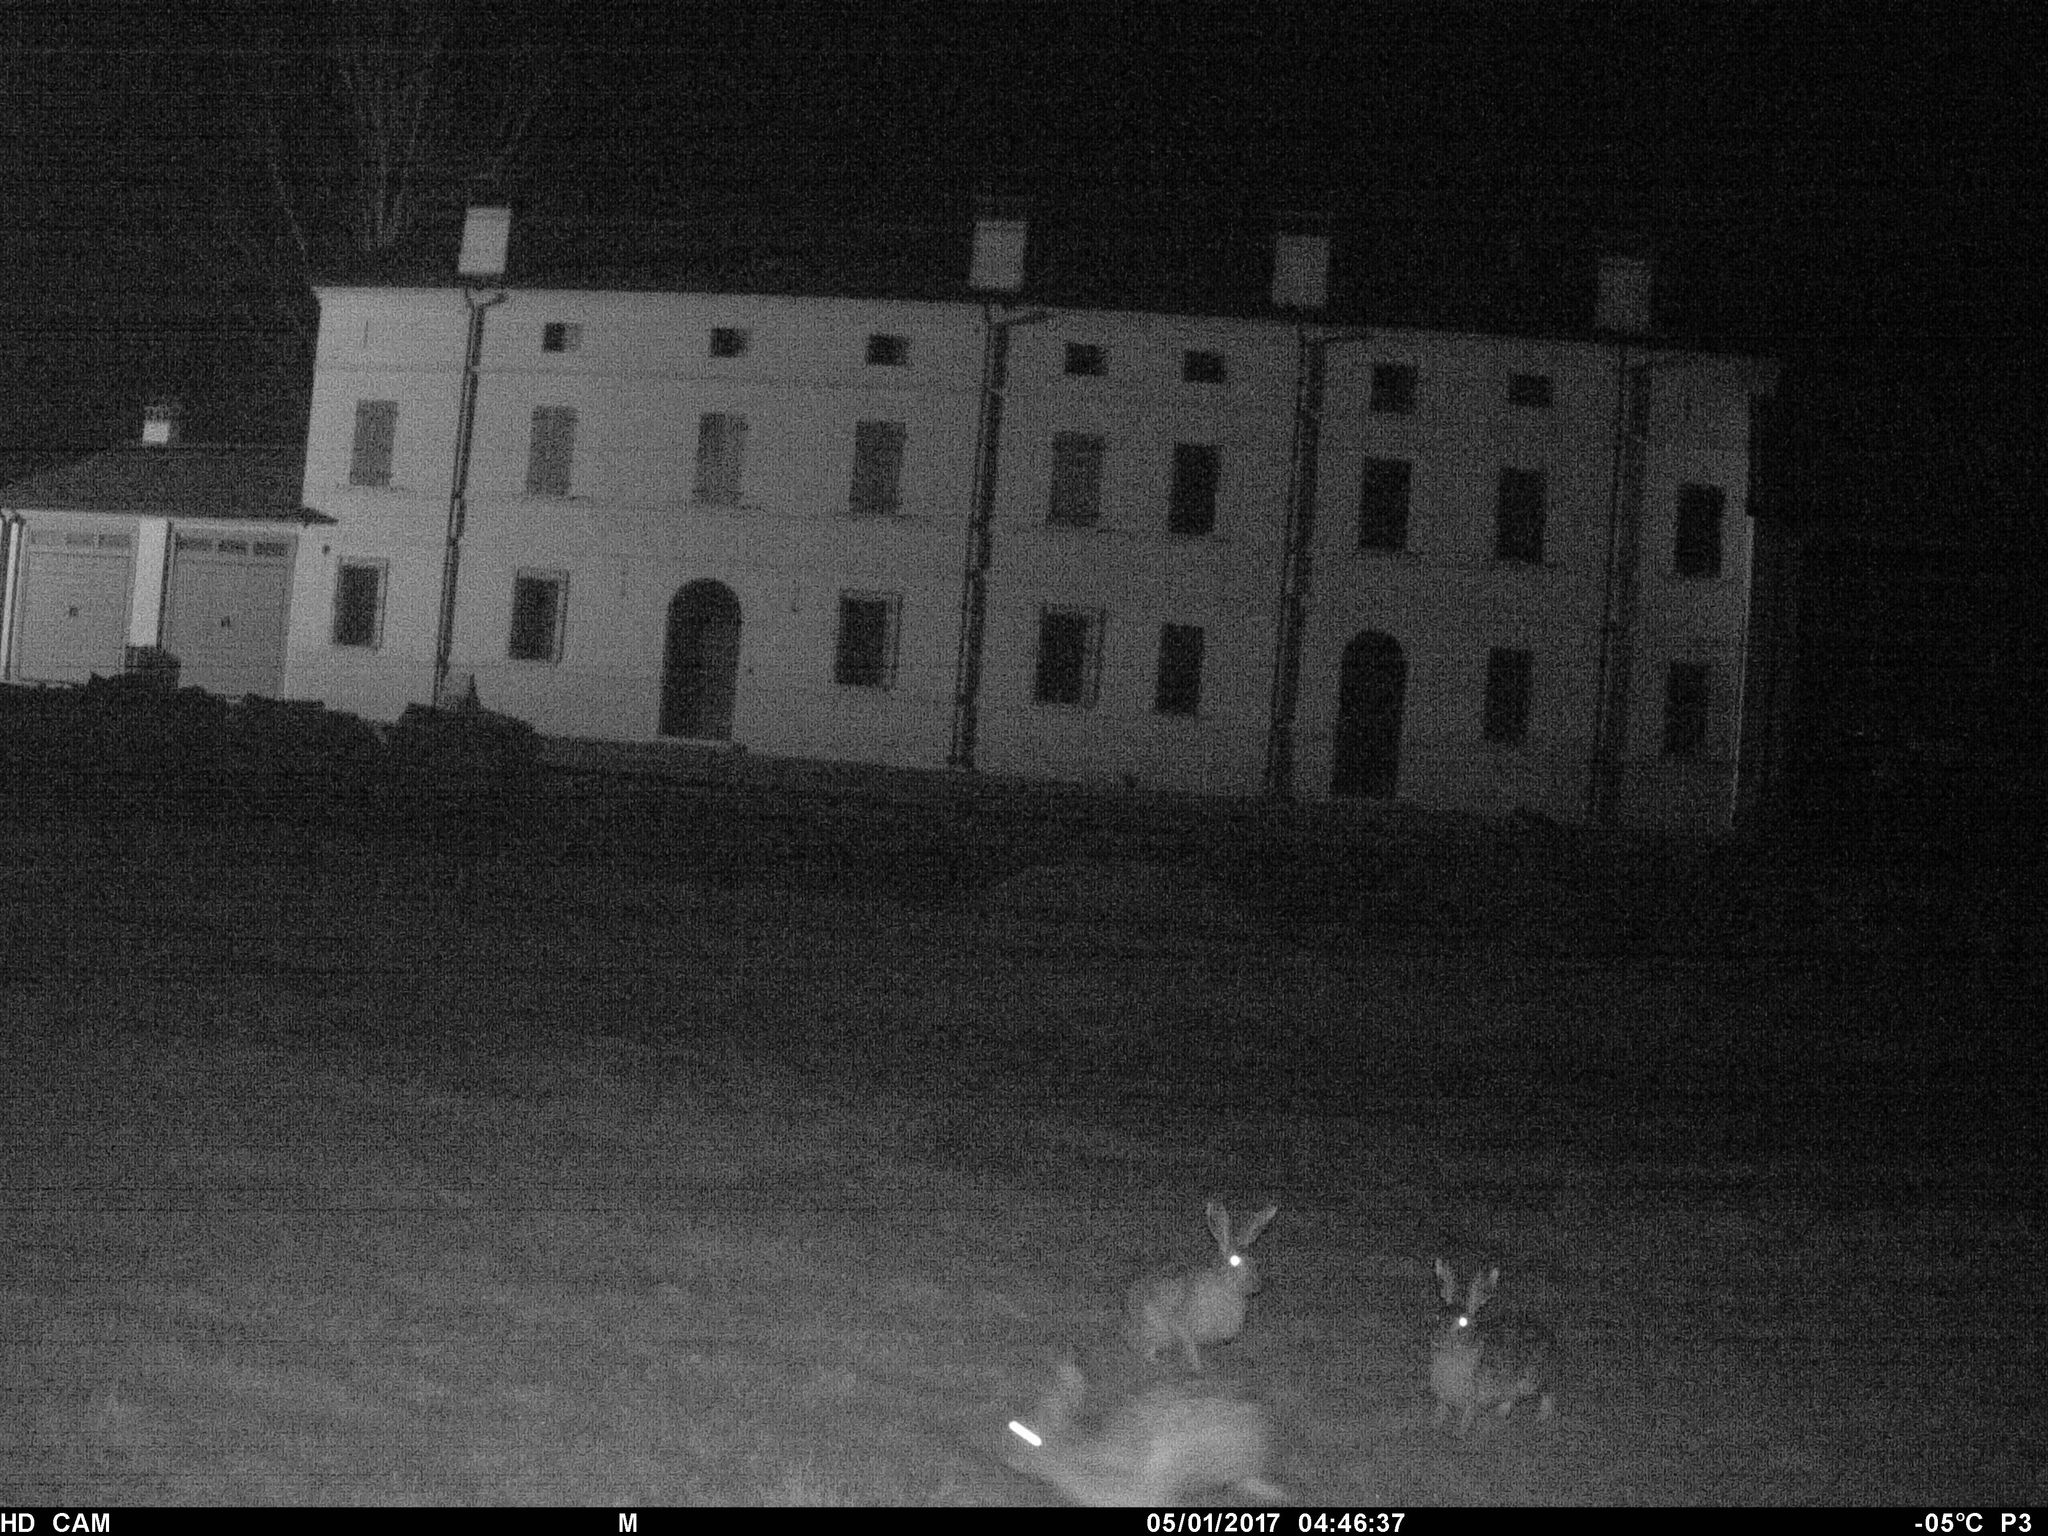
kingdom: Animalia
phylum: Chordata
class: Mammalia
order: Lagomorpha
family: Leporidae
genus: Lepus
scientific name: Lepus europaeus
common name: European hare
